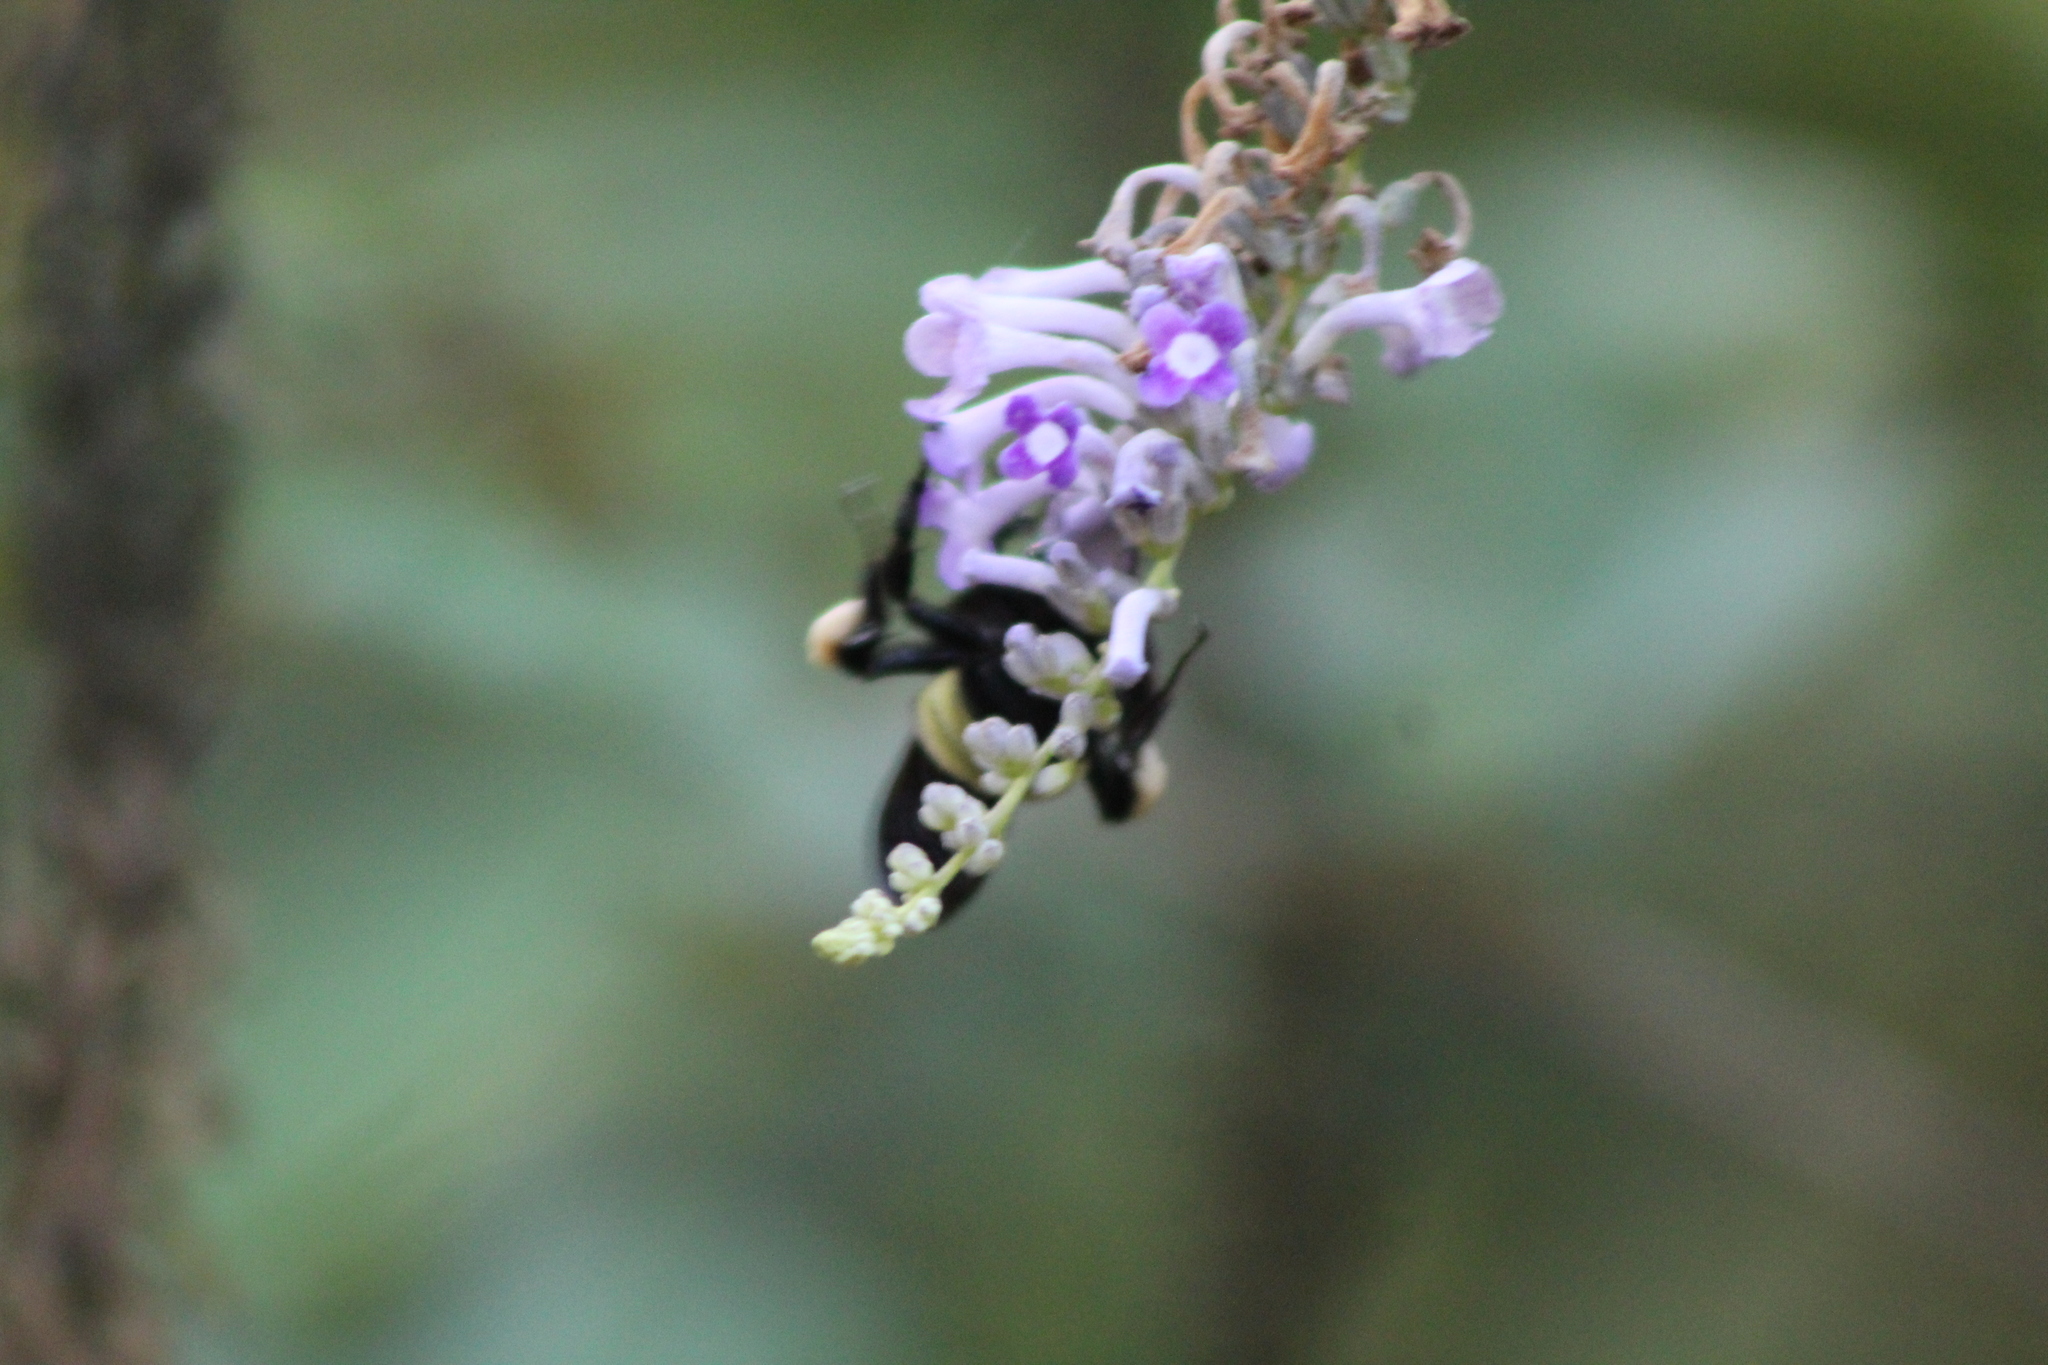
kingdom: Animalia
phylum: Arthropoda
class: Insecta
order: Hymenoptera
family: Apidae
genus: Bombus
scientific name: Bombus pensylvanicus
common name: Bumble bee
